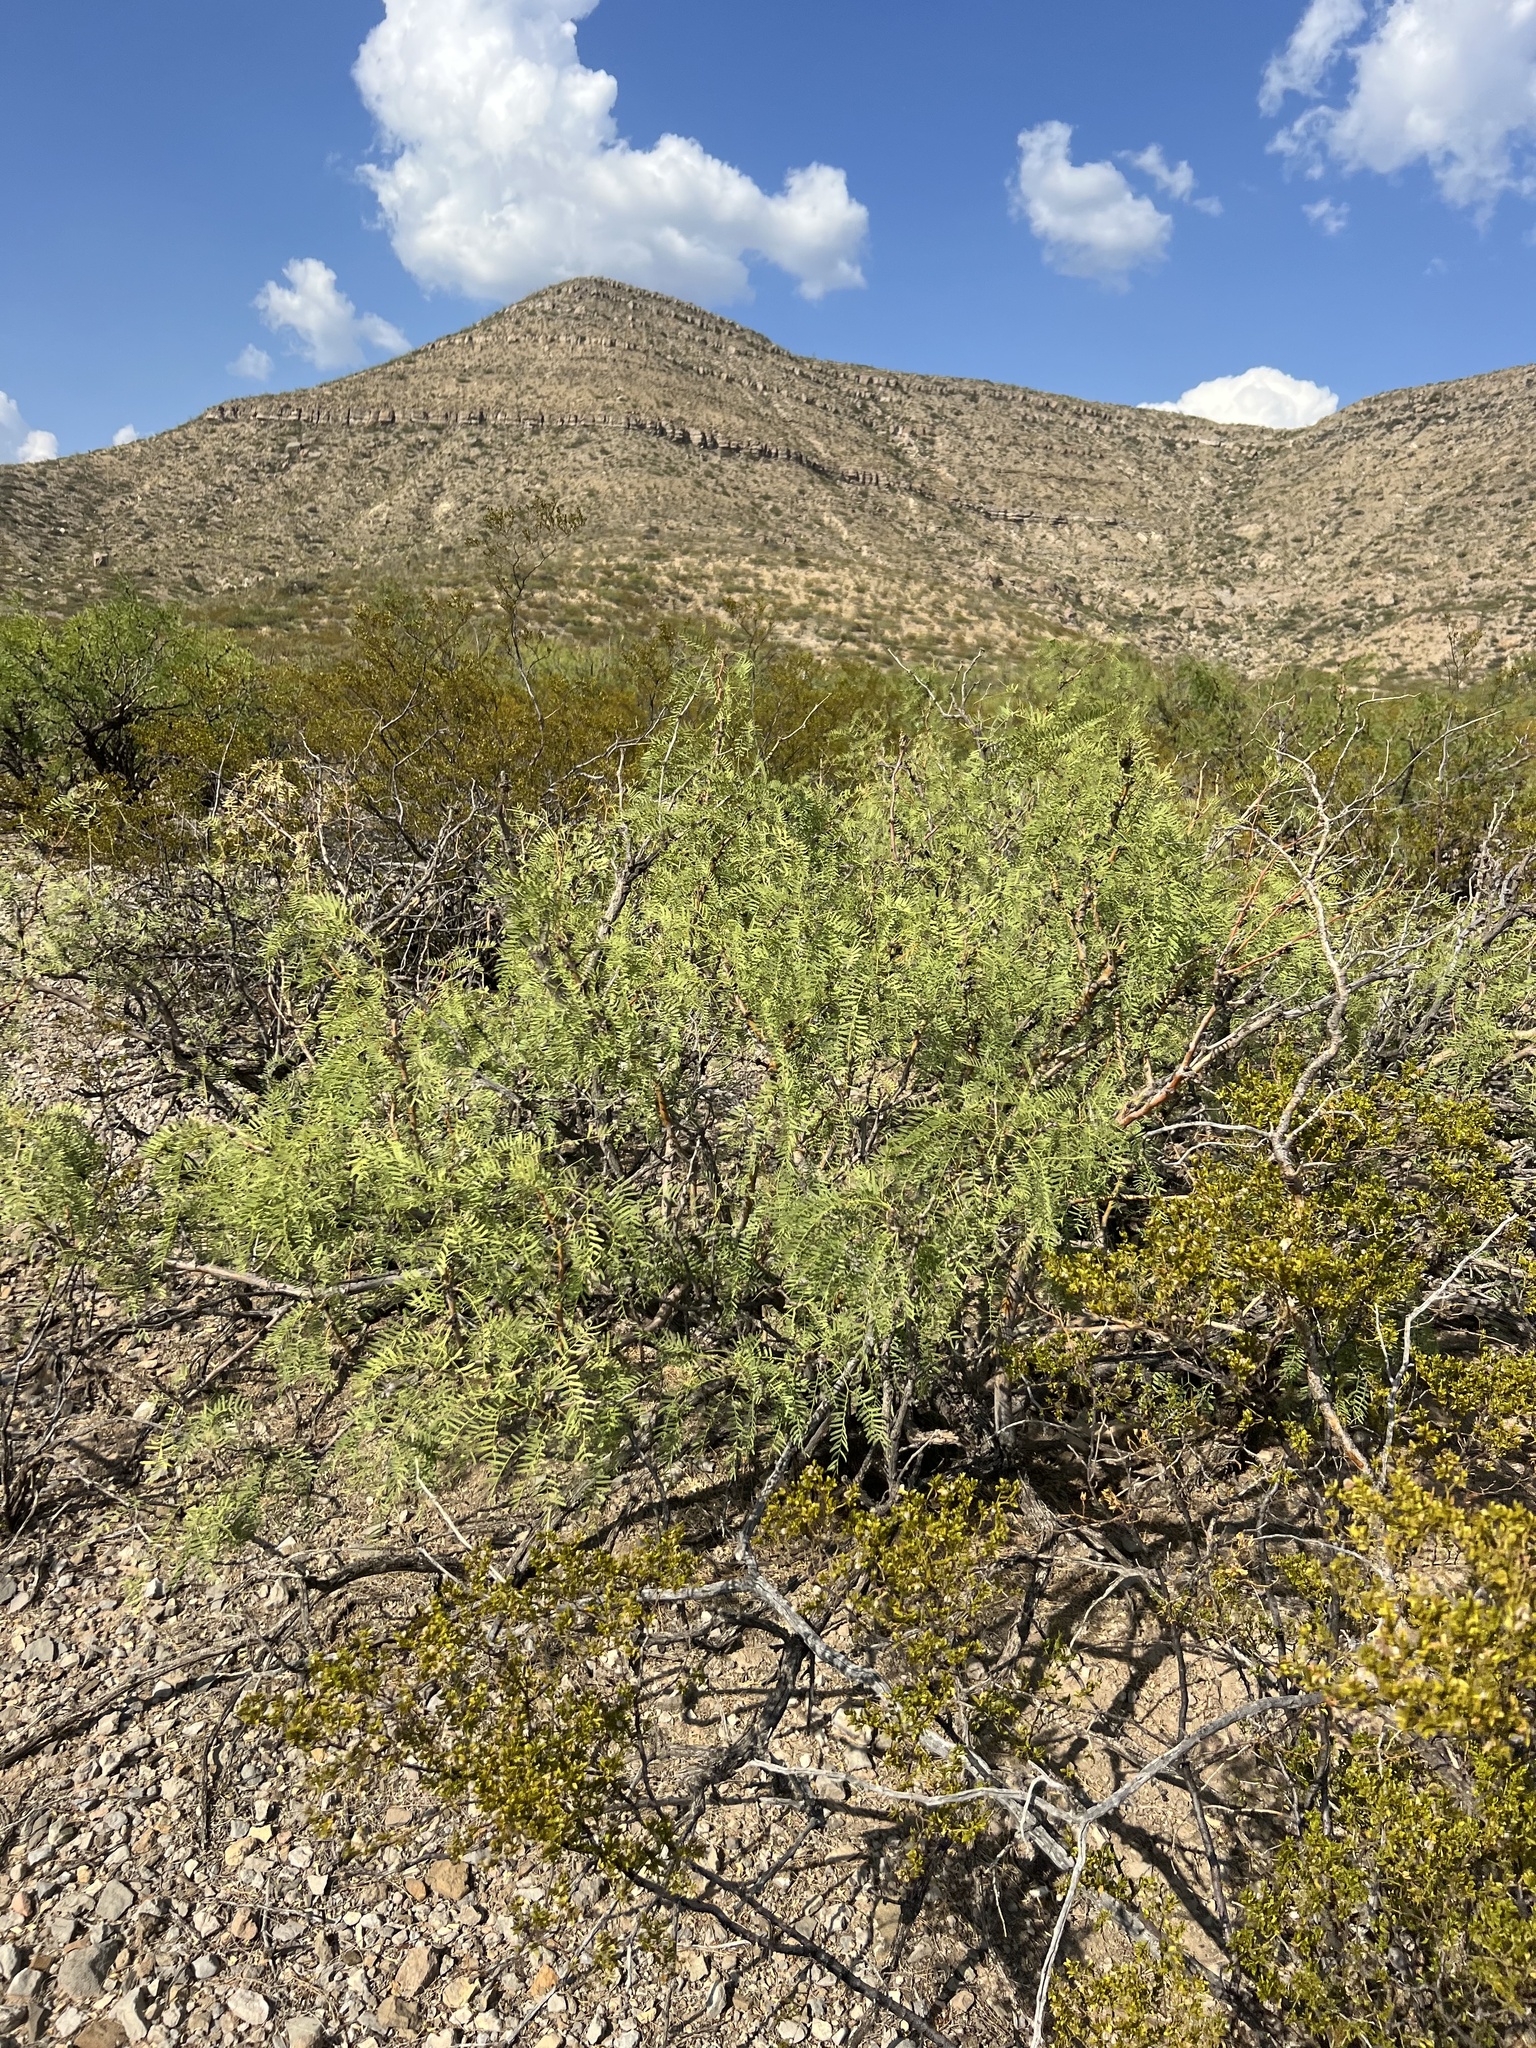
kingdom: Plantae
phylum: Tracheophyta
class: Magnoliopsida
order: Fabales
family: Fabaceae
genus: Prosopis
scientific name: Prosopis glandulosa
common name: Honey mesquite
